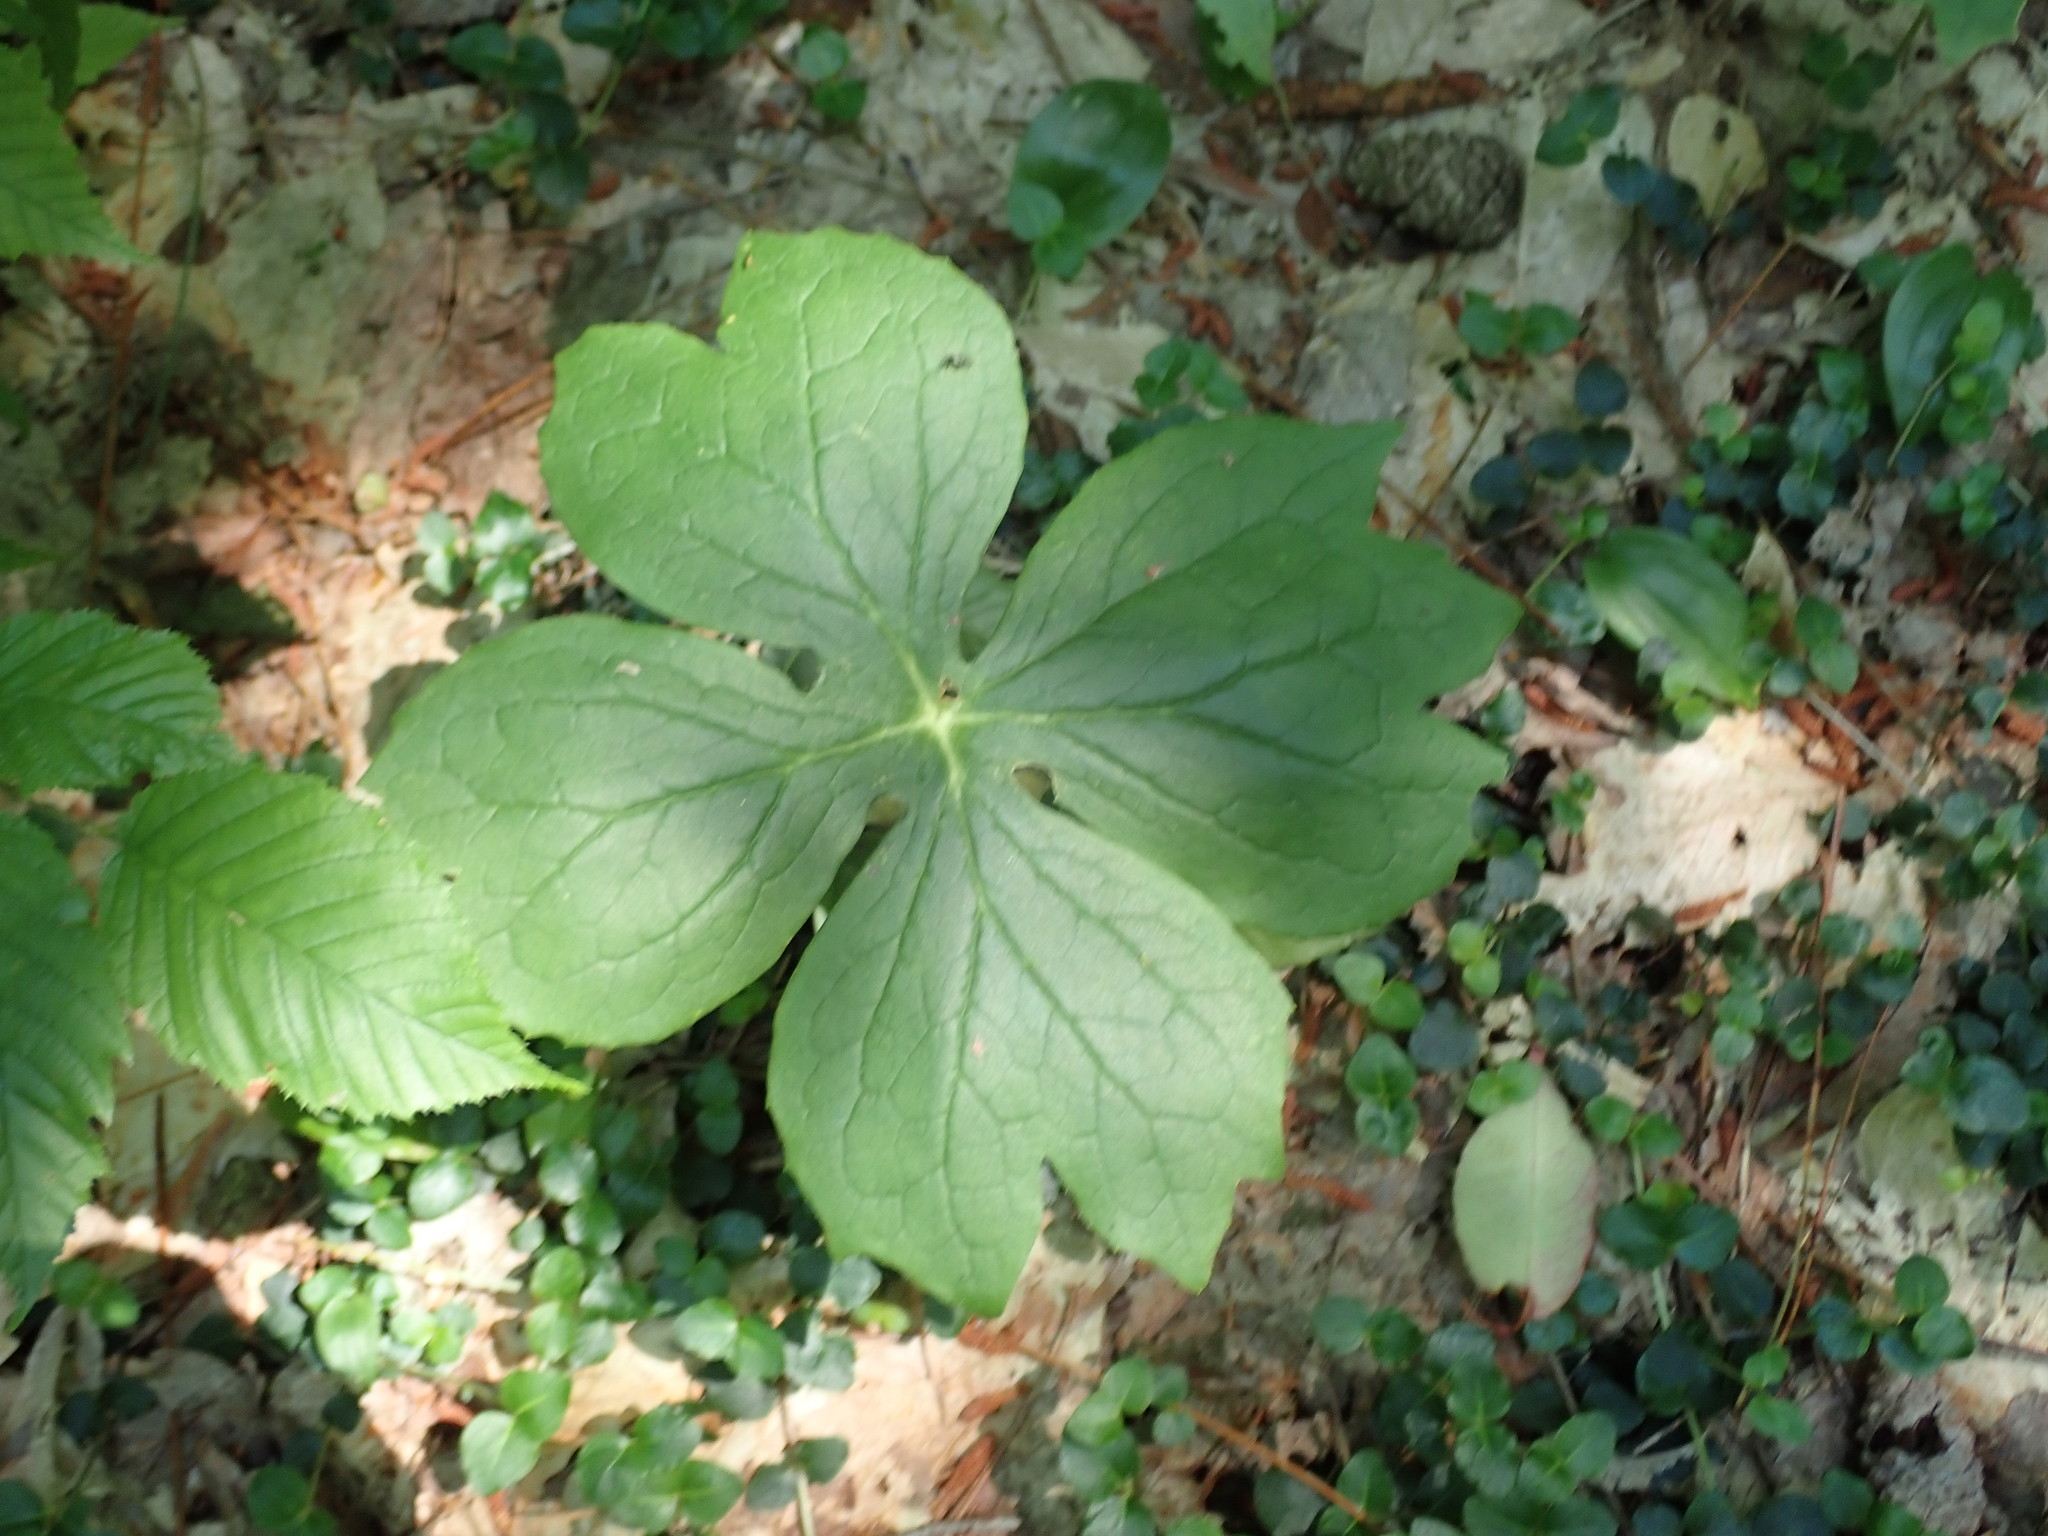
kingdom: Plantae
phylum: Tracheophyta
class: Magnoliopsida
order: Ranunculales
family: Berberidaceae
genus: Podophyllum
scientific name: Podophyllum peltatum
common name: Wild mandrake
